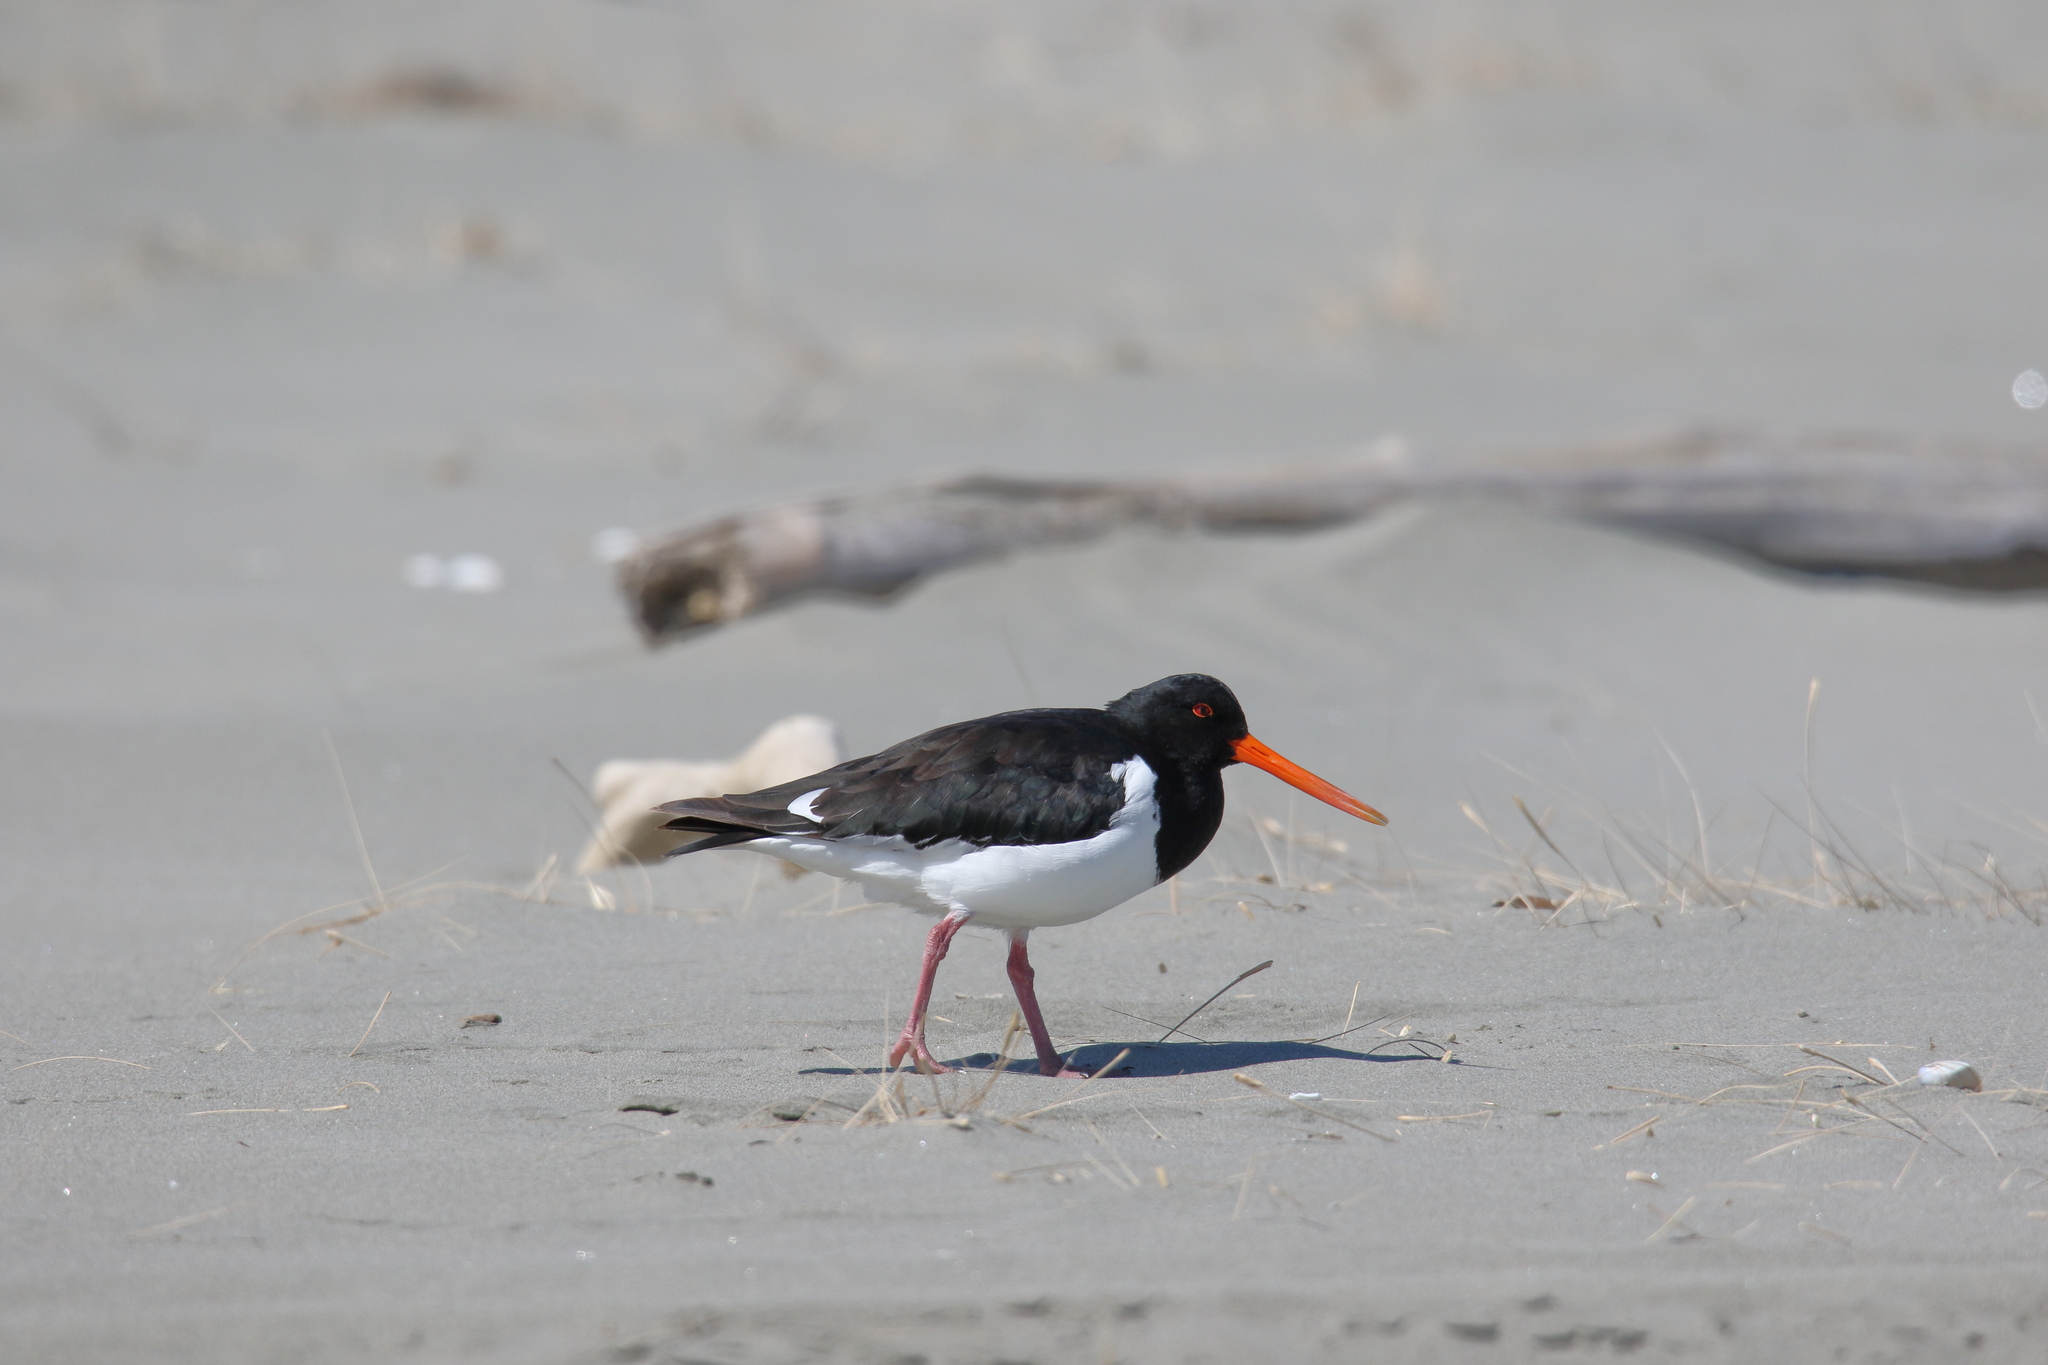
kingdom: Animalia
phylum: Chordata
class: Aves
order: Charadriiformes
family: Haematopodidae
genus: Haematopus
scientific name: Haematopus finschi
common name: South island oystercatcher
